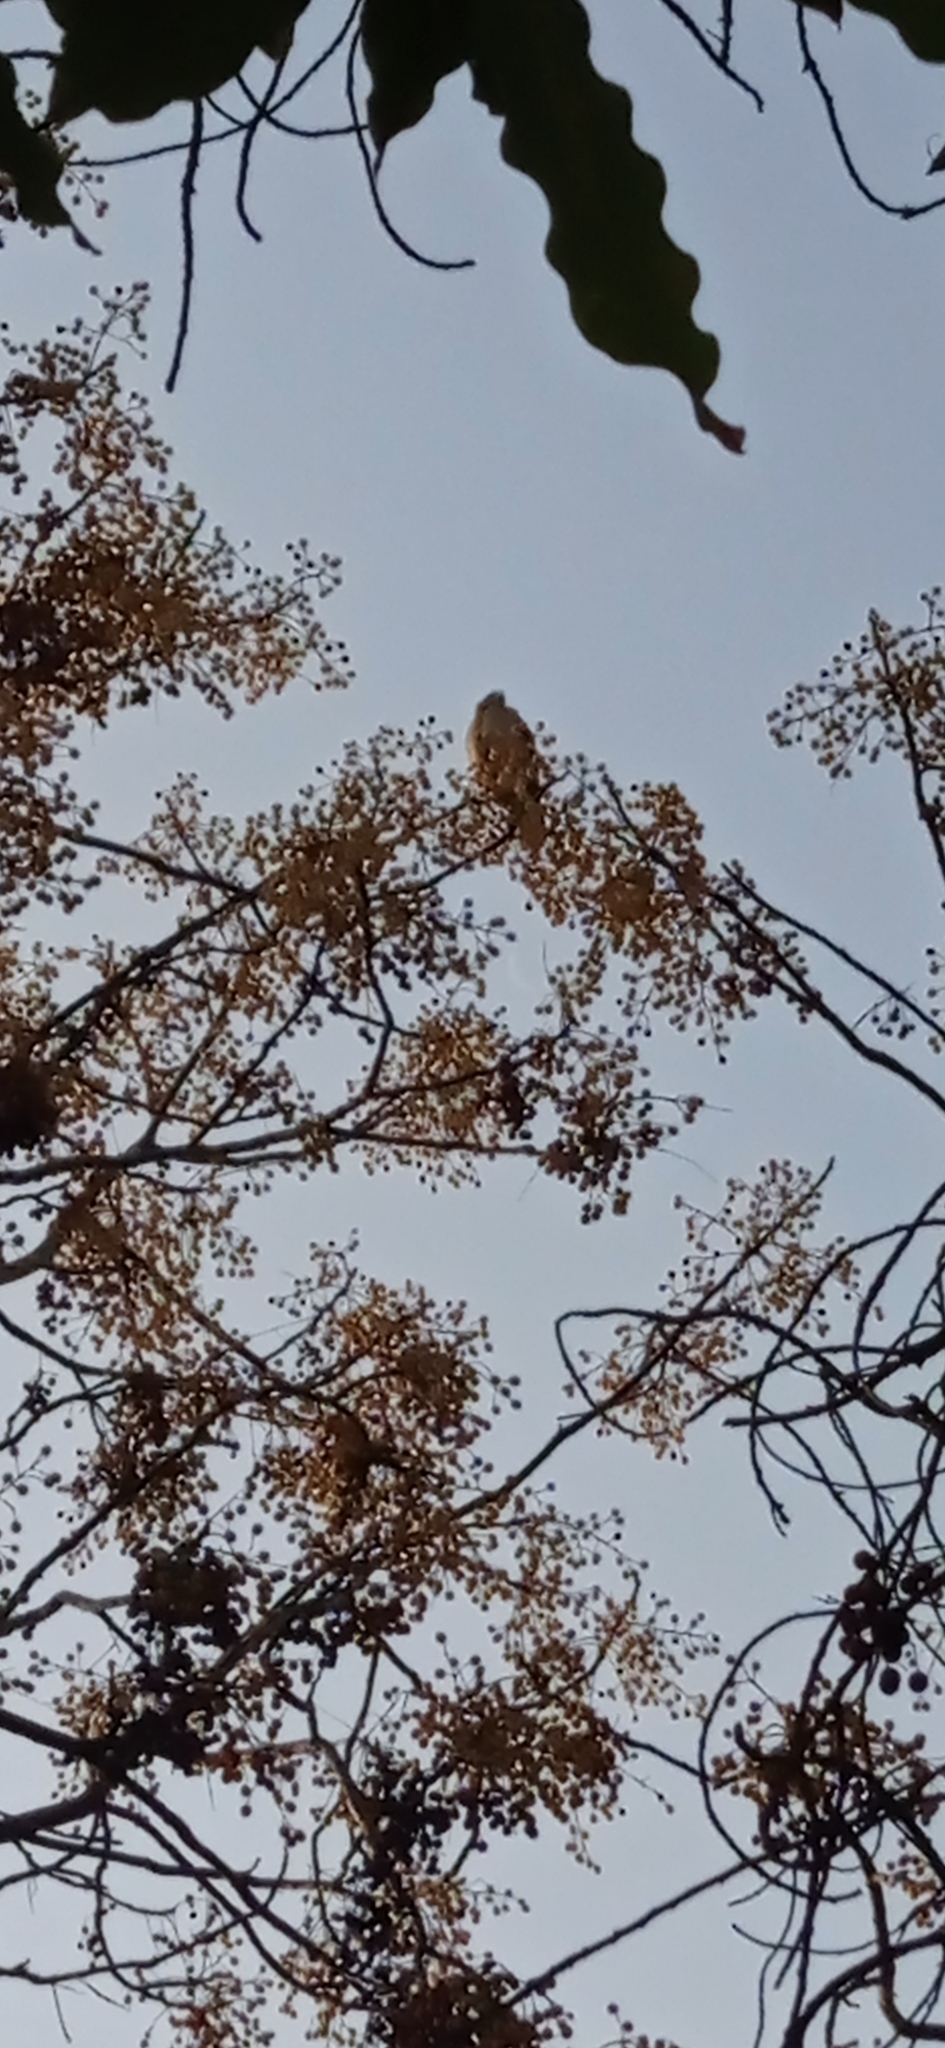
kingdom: Animalia
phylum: Chordata
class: Aves
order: Falconiformes
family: Falconidae
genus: Daptrius
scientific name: Daptrius
